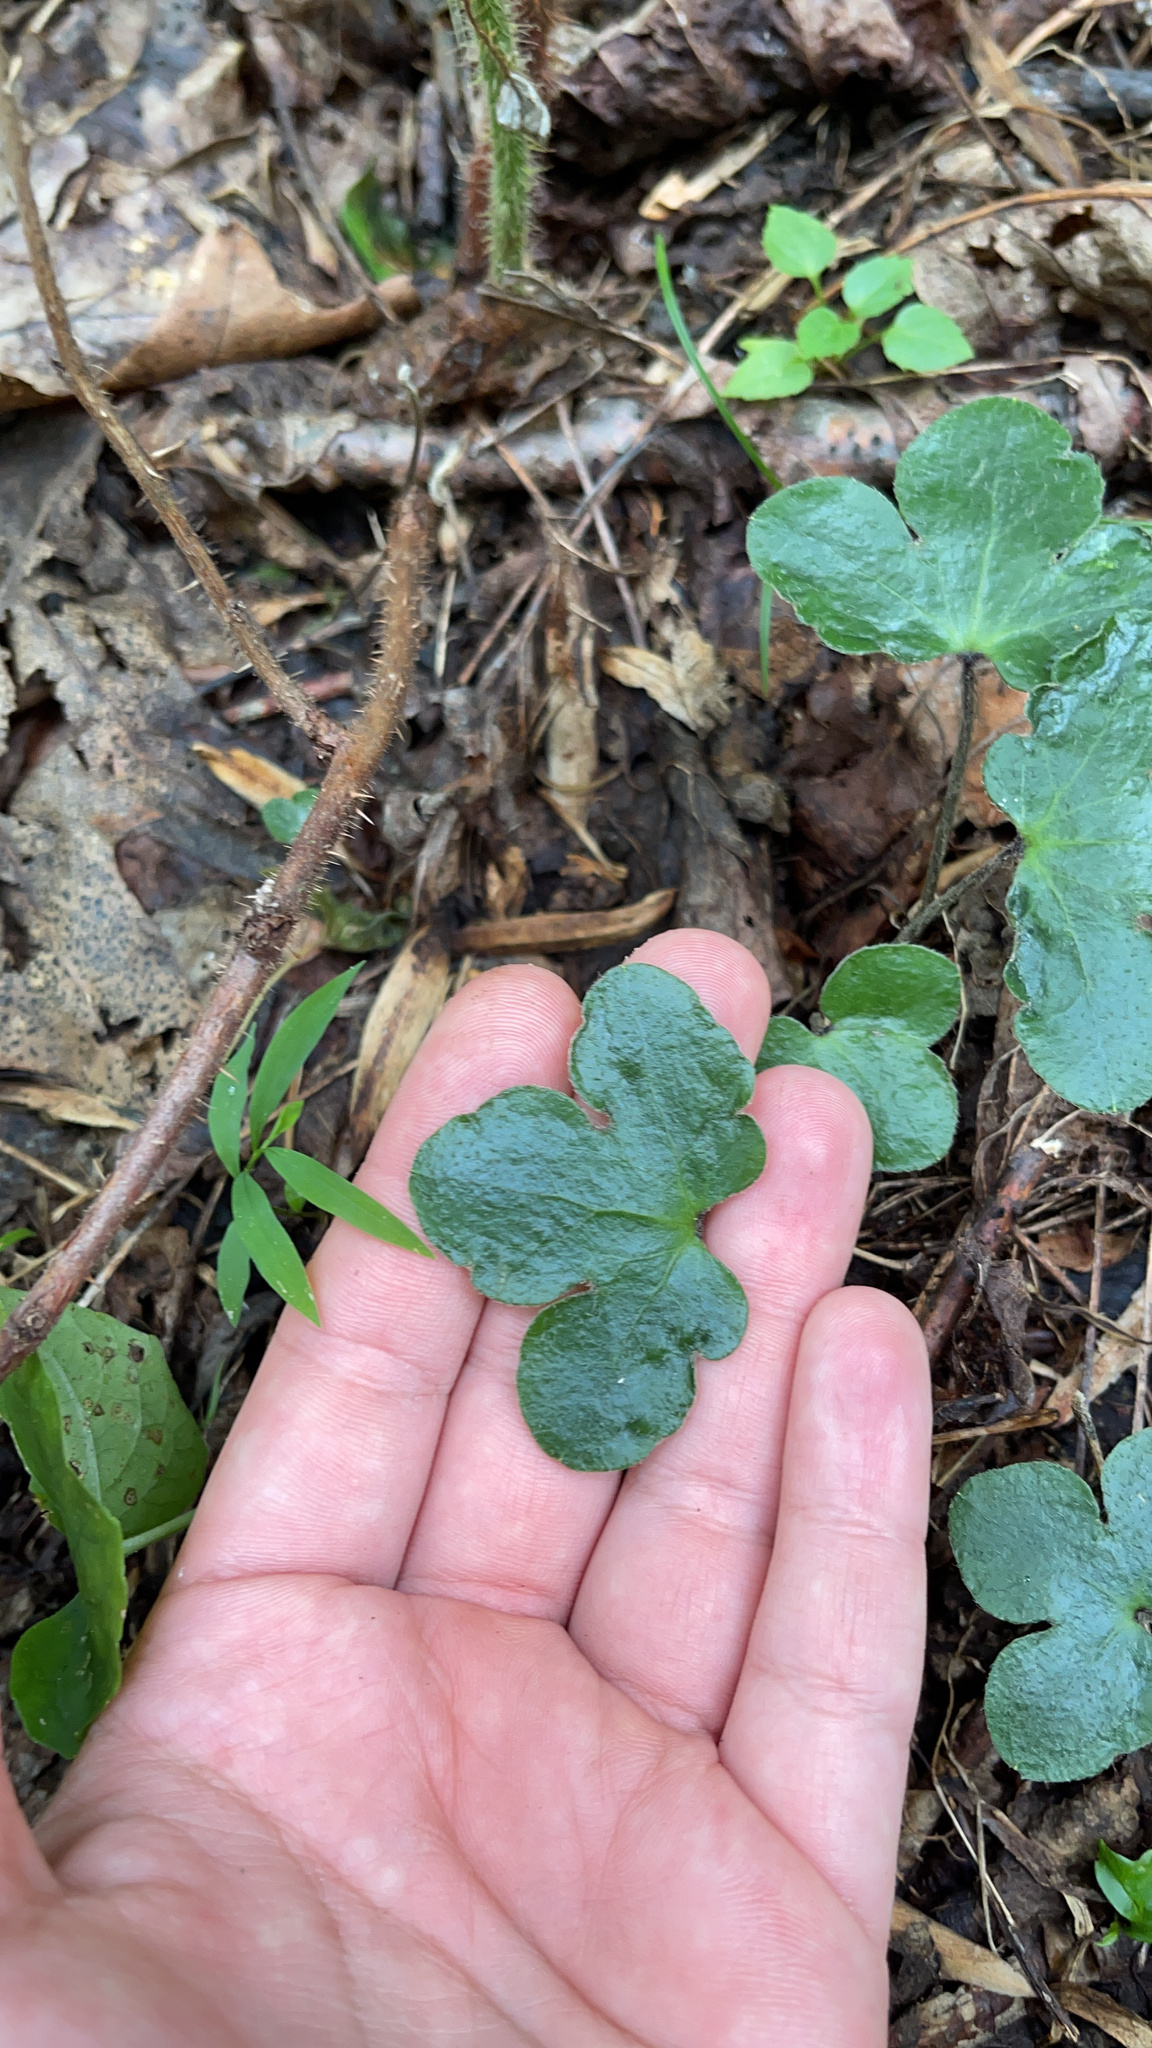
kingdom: Plantae
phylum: Tracheophyta
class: Magnoliopsida
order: Ranunculales
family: Ranunculaceae
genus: Hepatica
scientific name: Hepatica americana
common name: American hepatica
